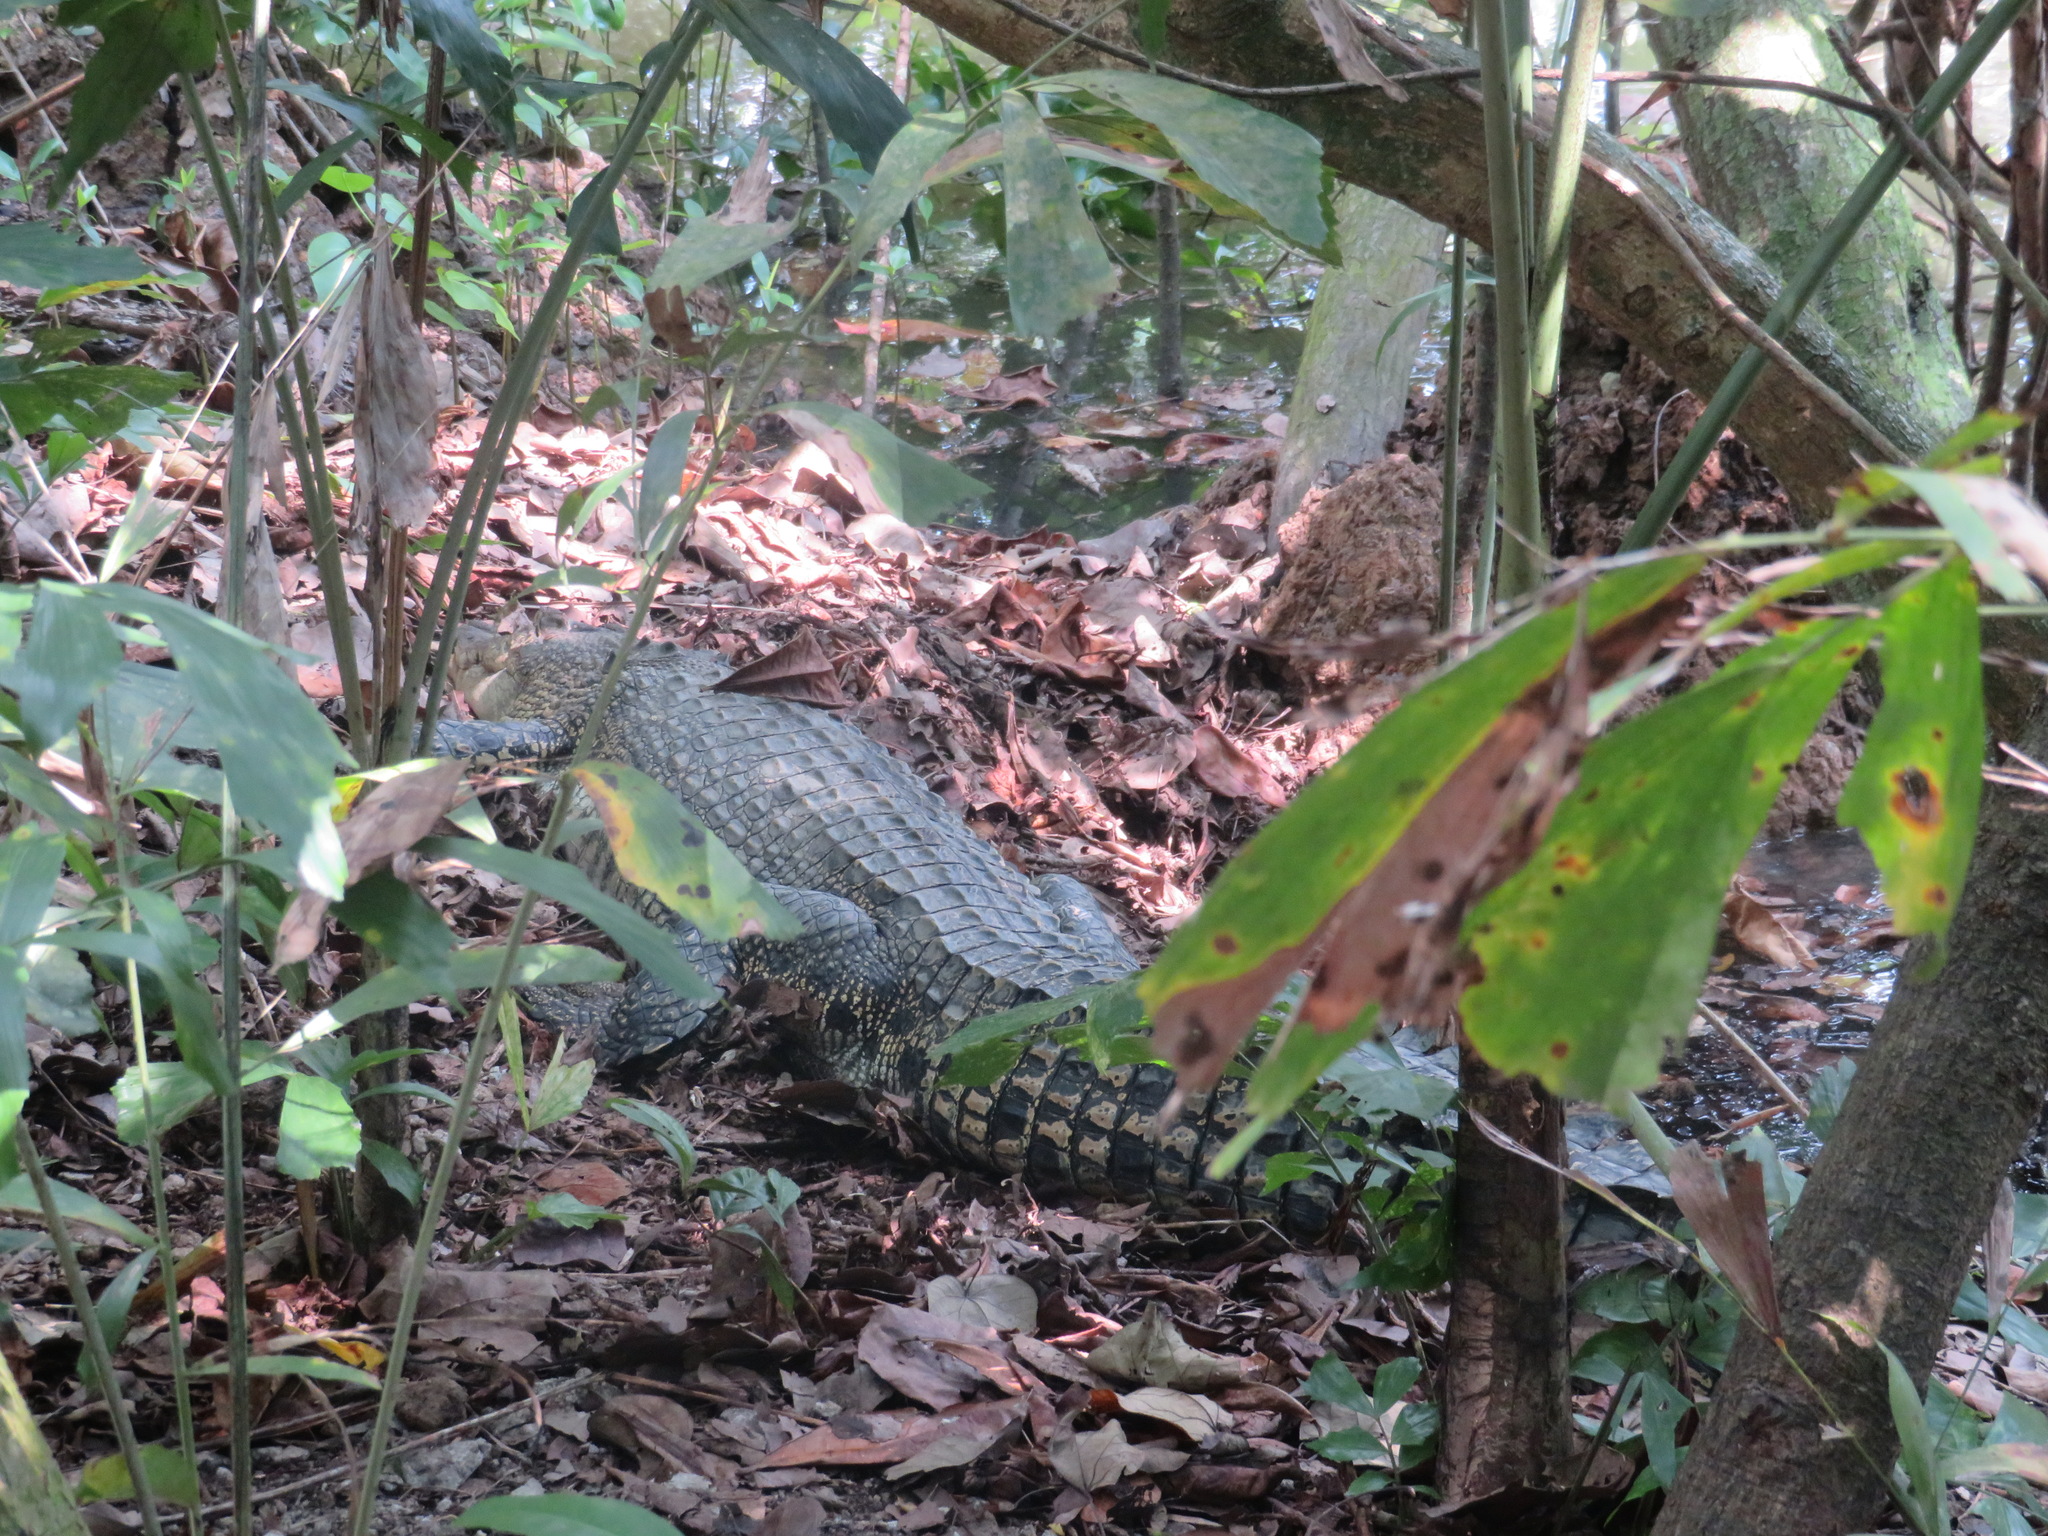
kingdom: Animalia
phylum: Chordata
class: Crocodylia
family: Crocodylidae
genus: Crocodylus
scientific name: Crocodylus porosus
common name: Saltwater crocodile
